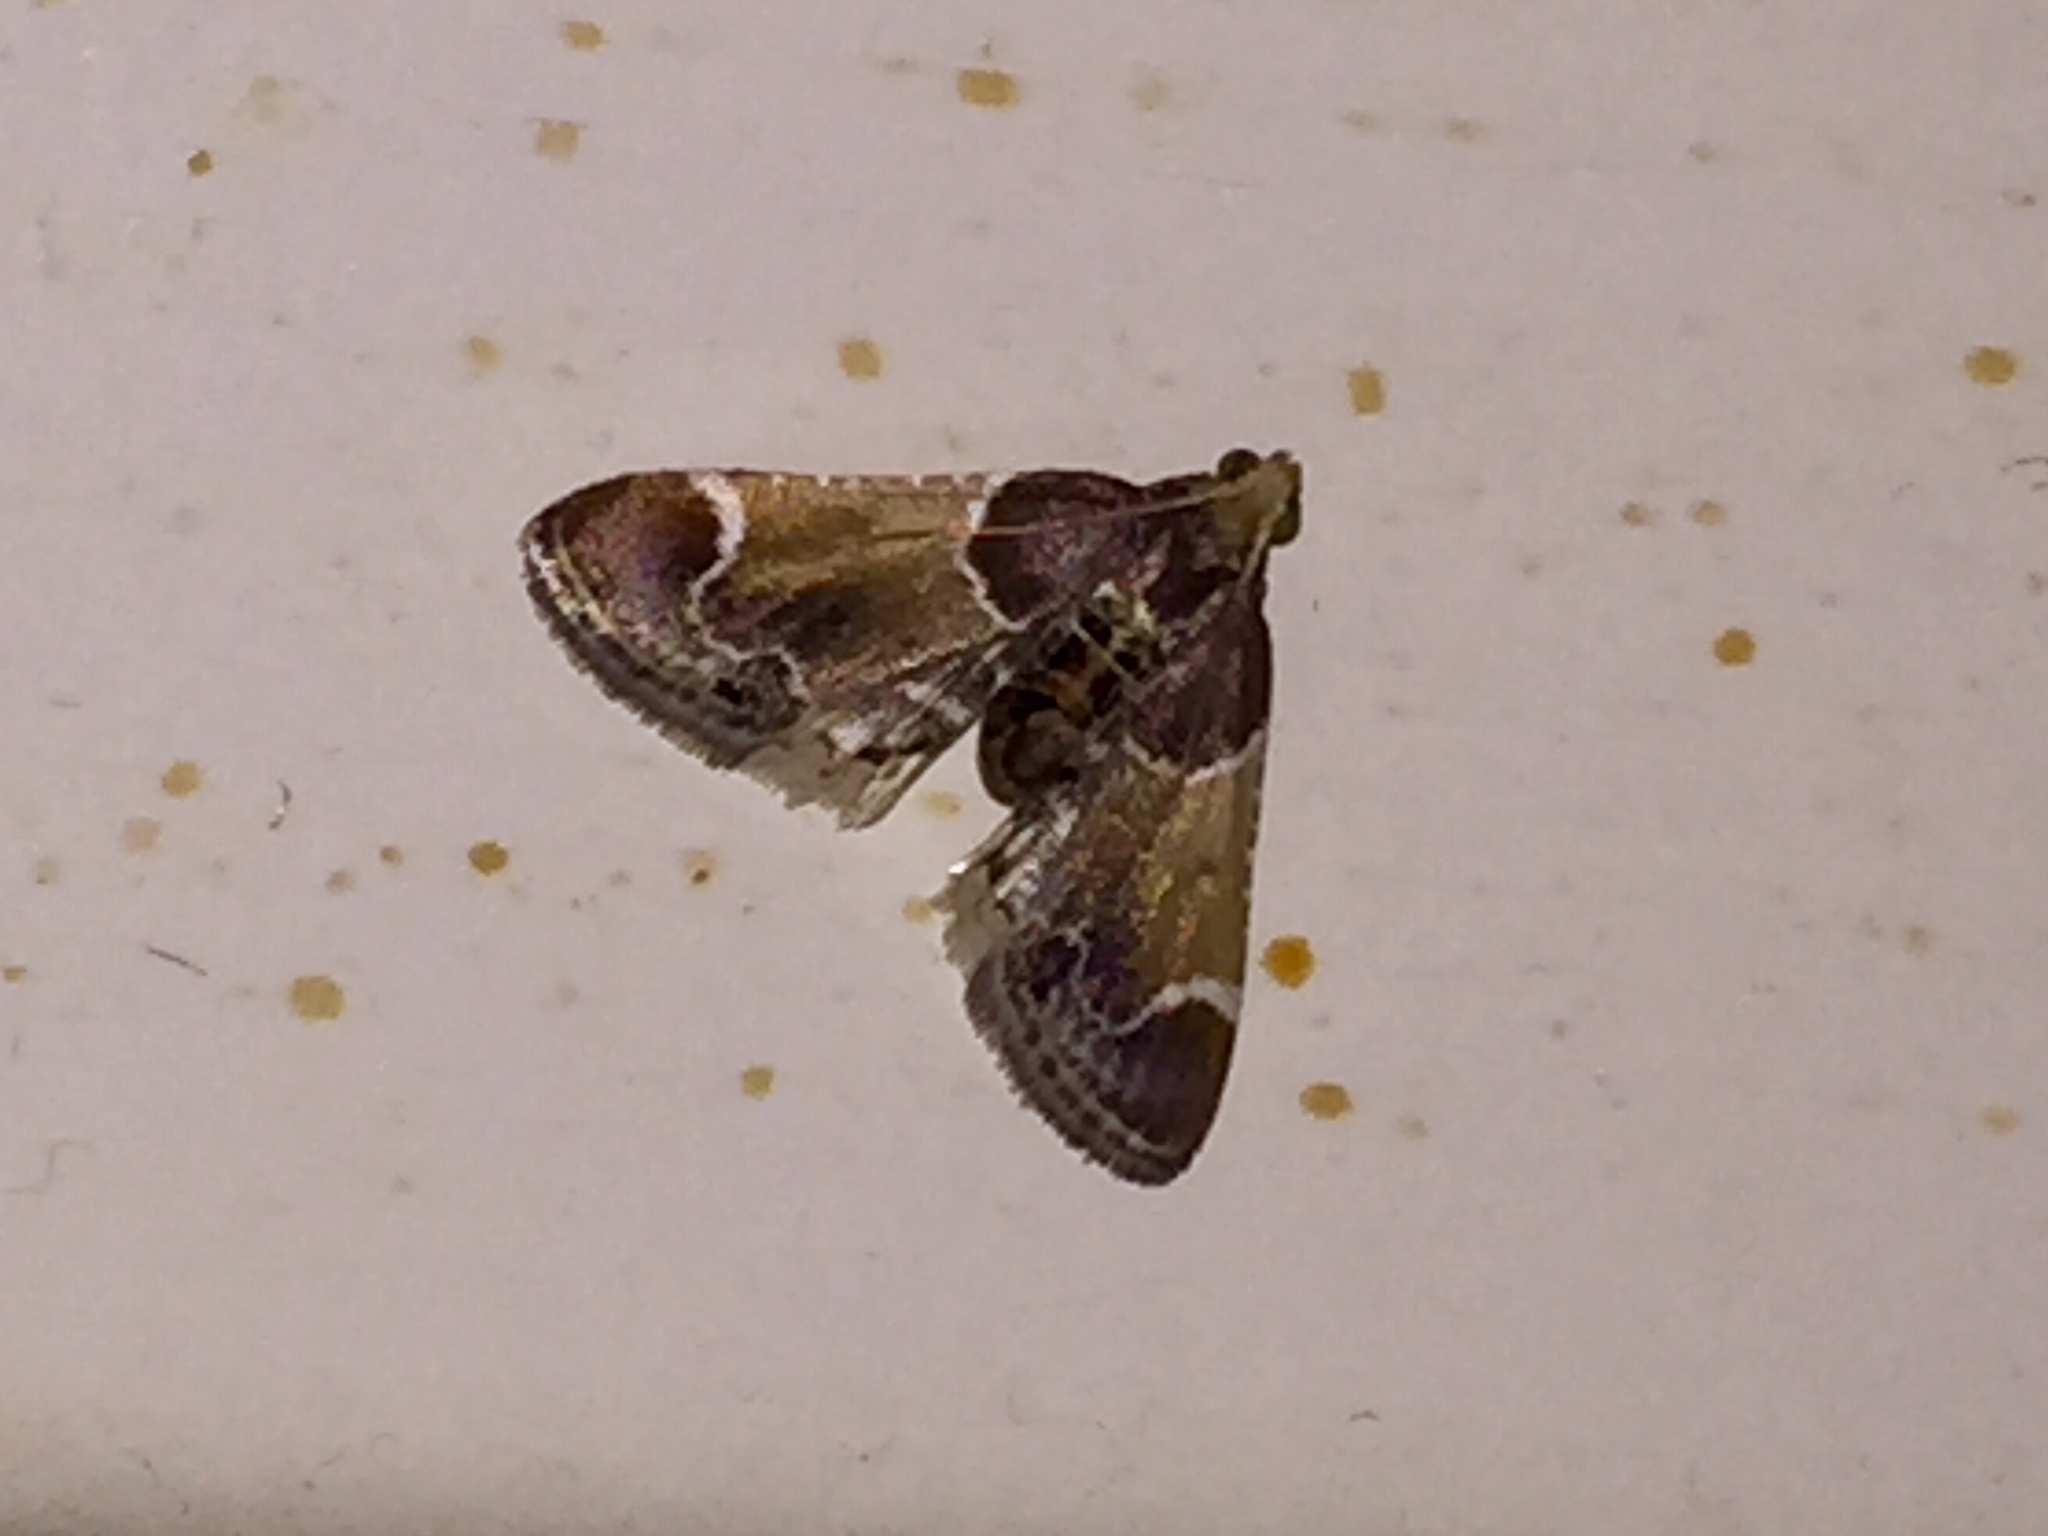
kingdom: Animalia
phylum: Arthropoda
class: Insecta
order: Lepidoptera
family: Pyralidae
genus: Pyralis
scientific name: Pyralis farinalis
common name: Meal moth
